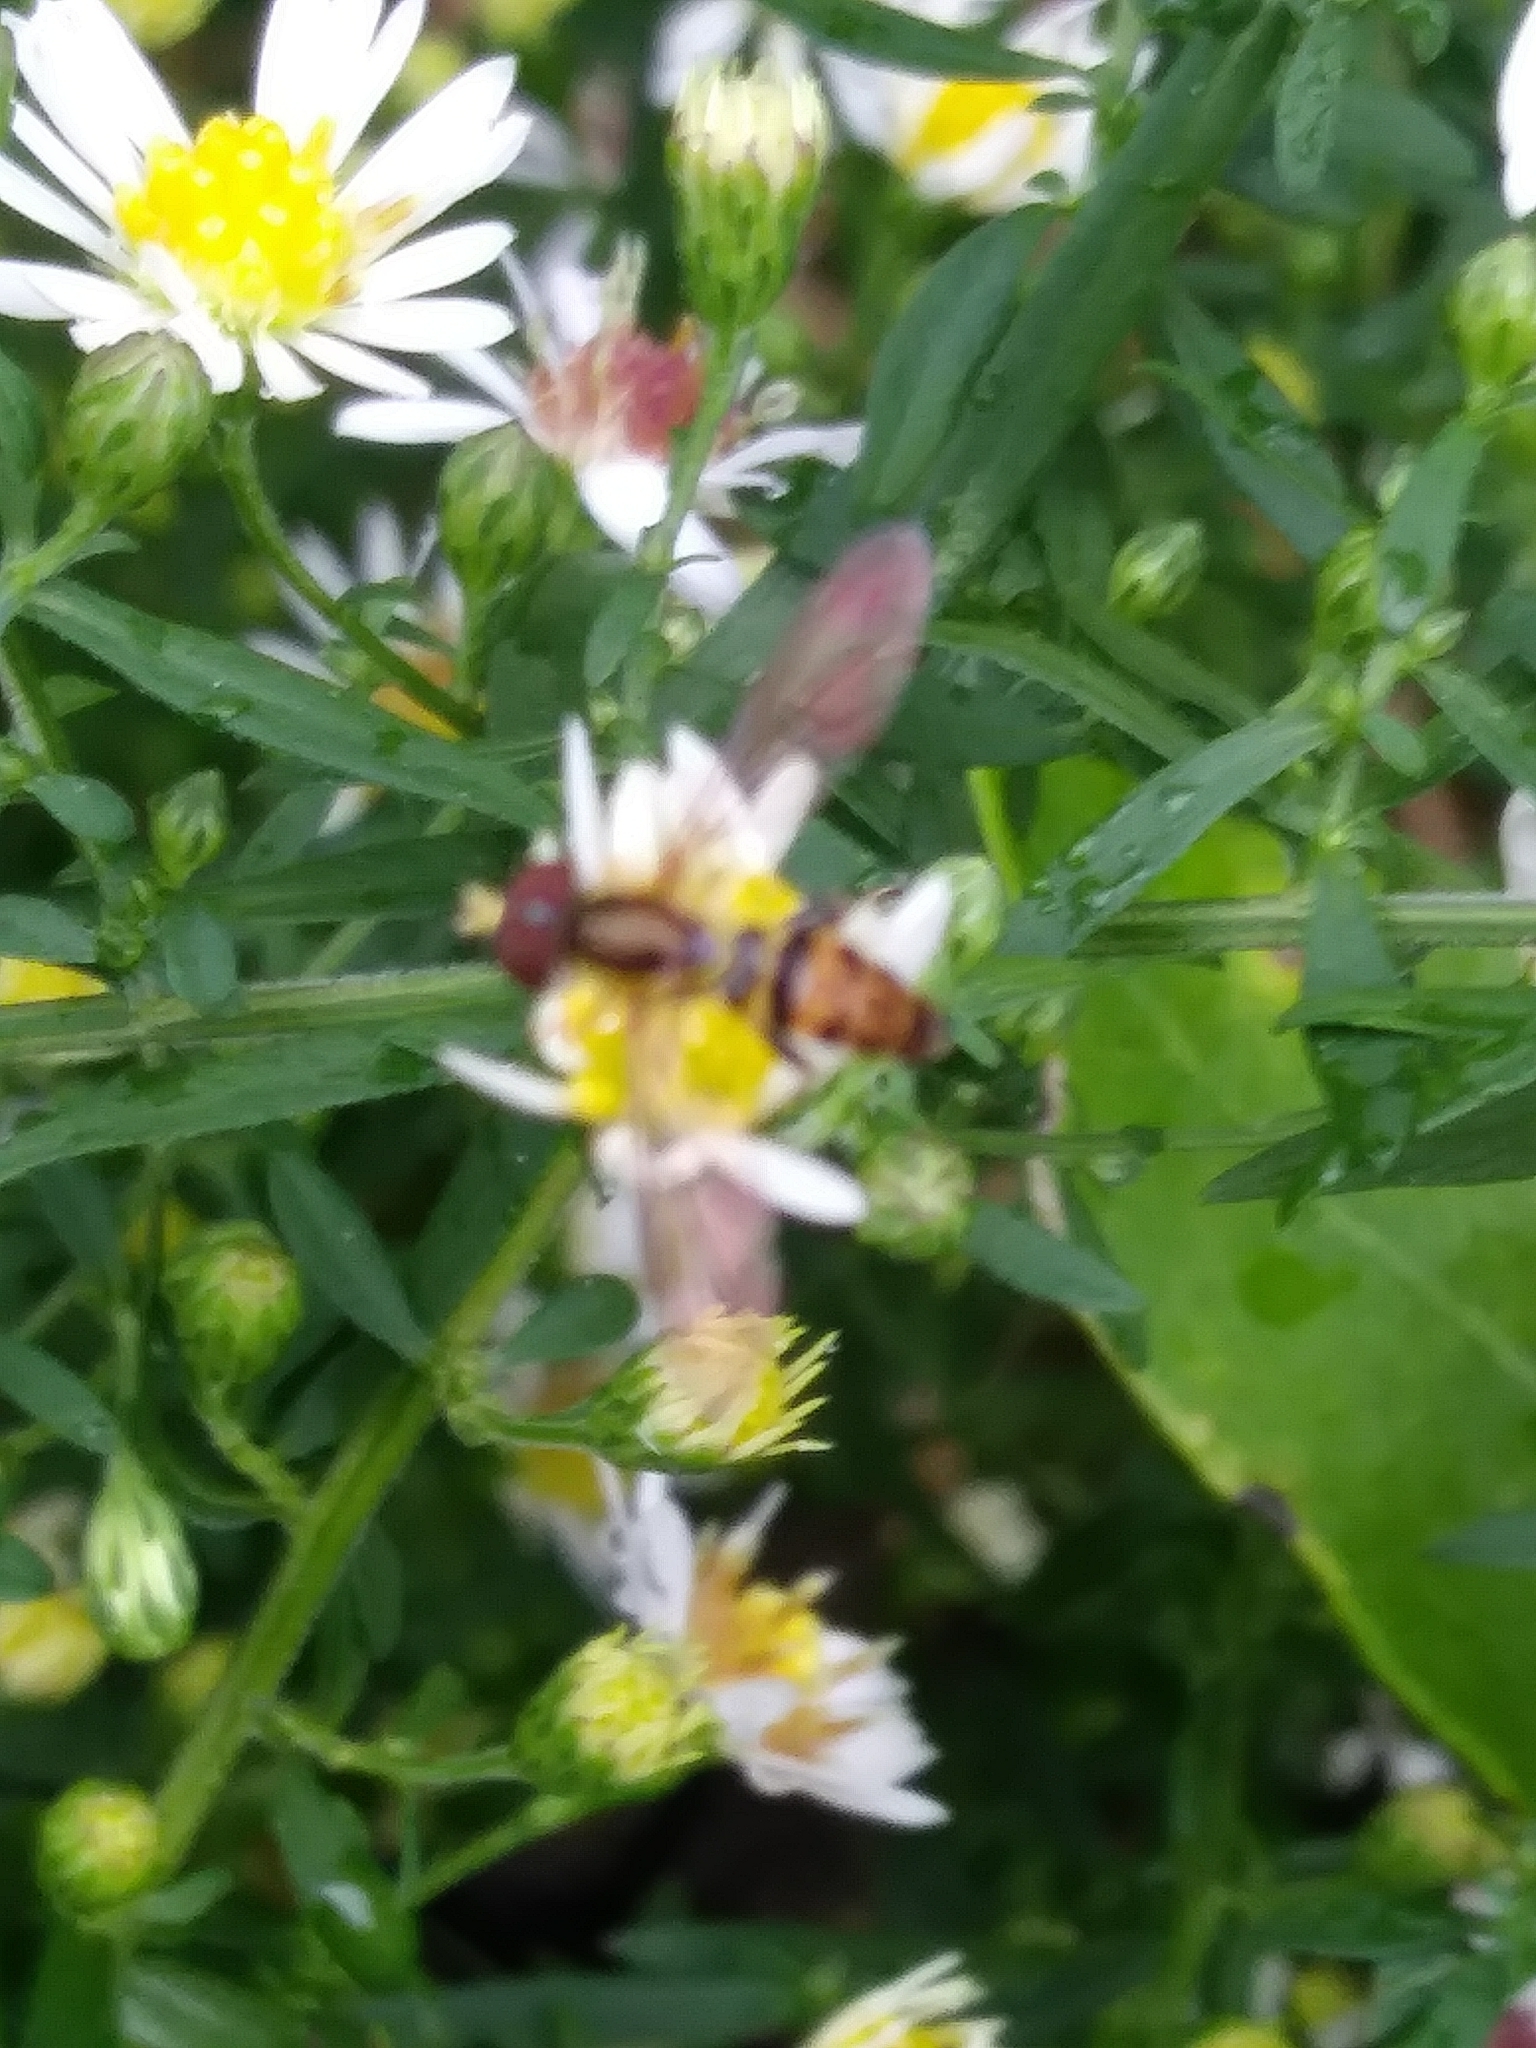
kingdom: Animalia
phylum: Arthropoda
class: Insecta
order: Diptera
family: Syrphidae
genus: Toxomerus
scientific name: Toxomerus geminatus
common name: Eastern calligrapher
